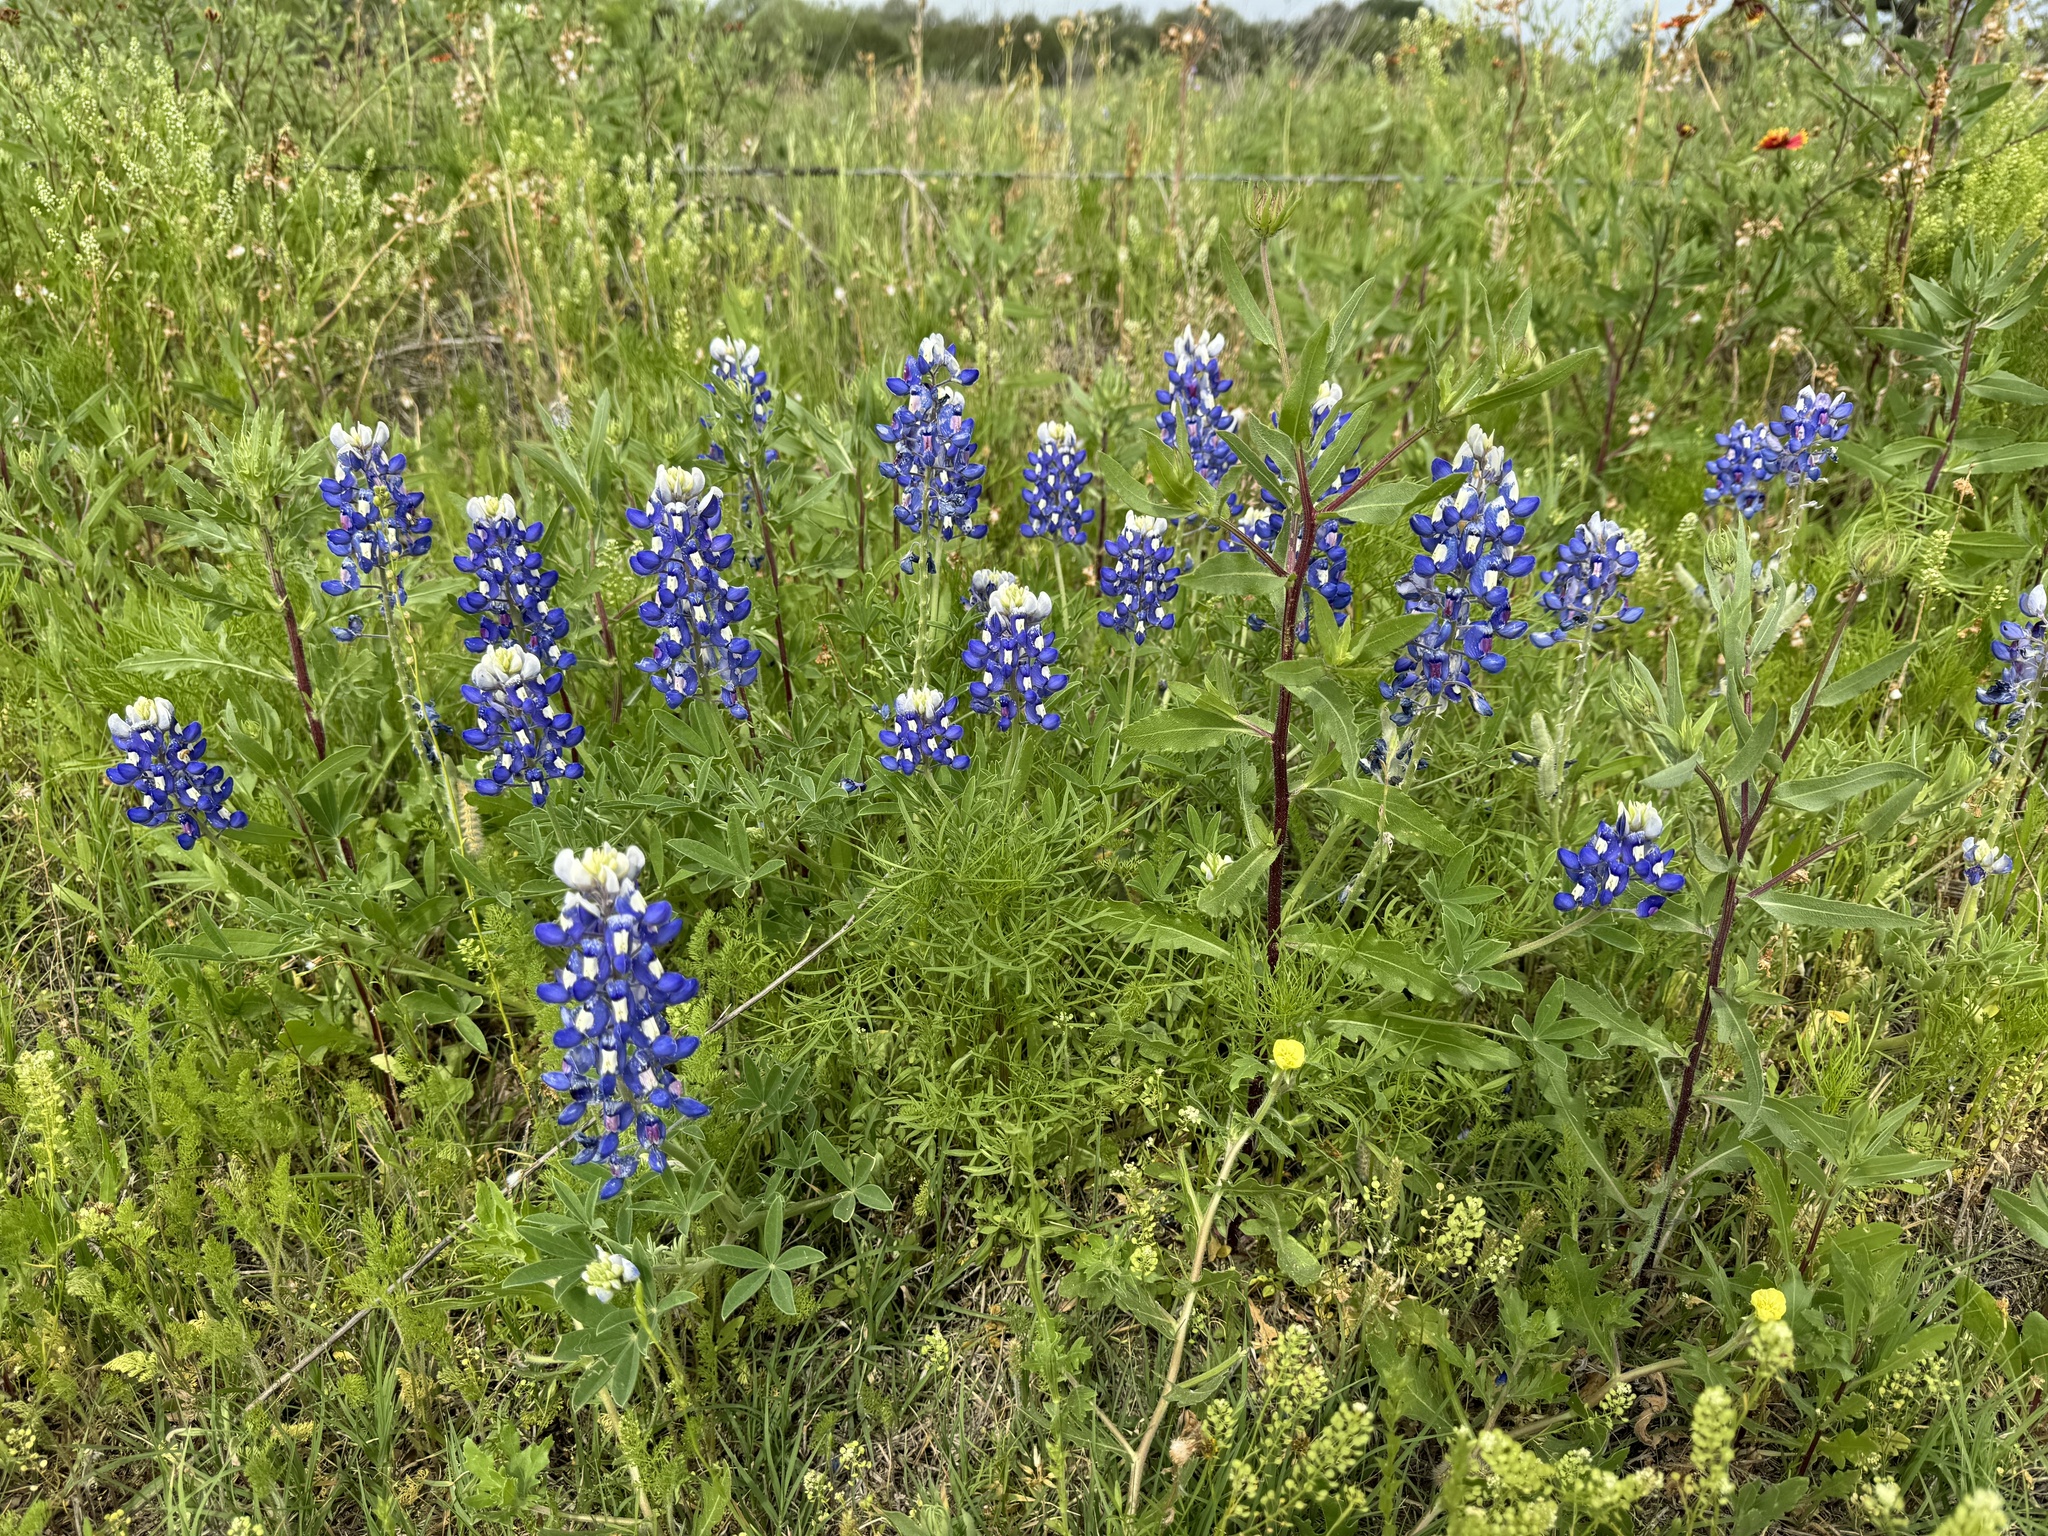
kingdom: Plantae
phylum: Tracheophyta
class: Magnoliopsida
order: Fabales
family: Fabaceae
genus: Lupinus
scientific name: Lupinus texensis
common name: Texas bluebonnet
